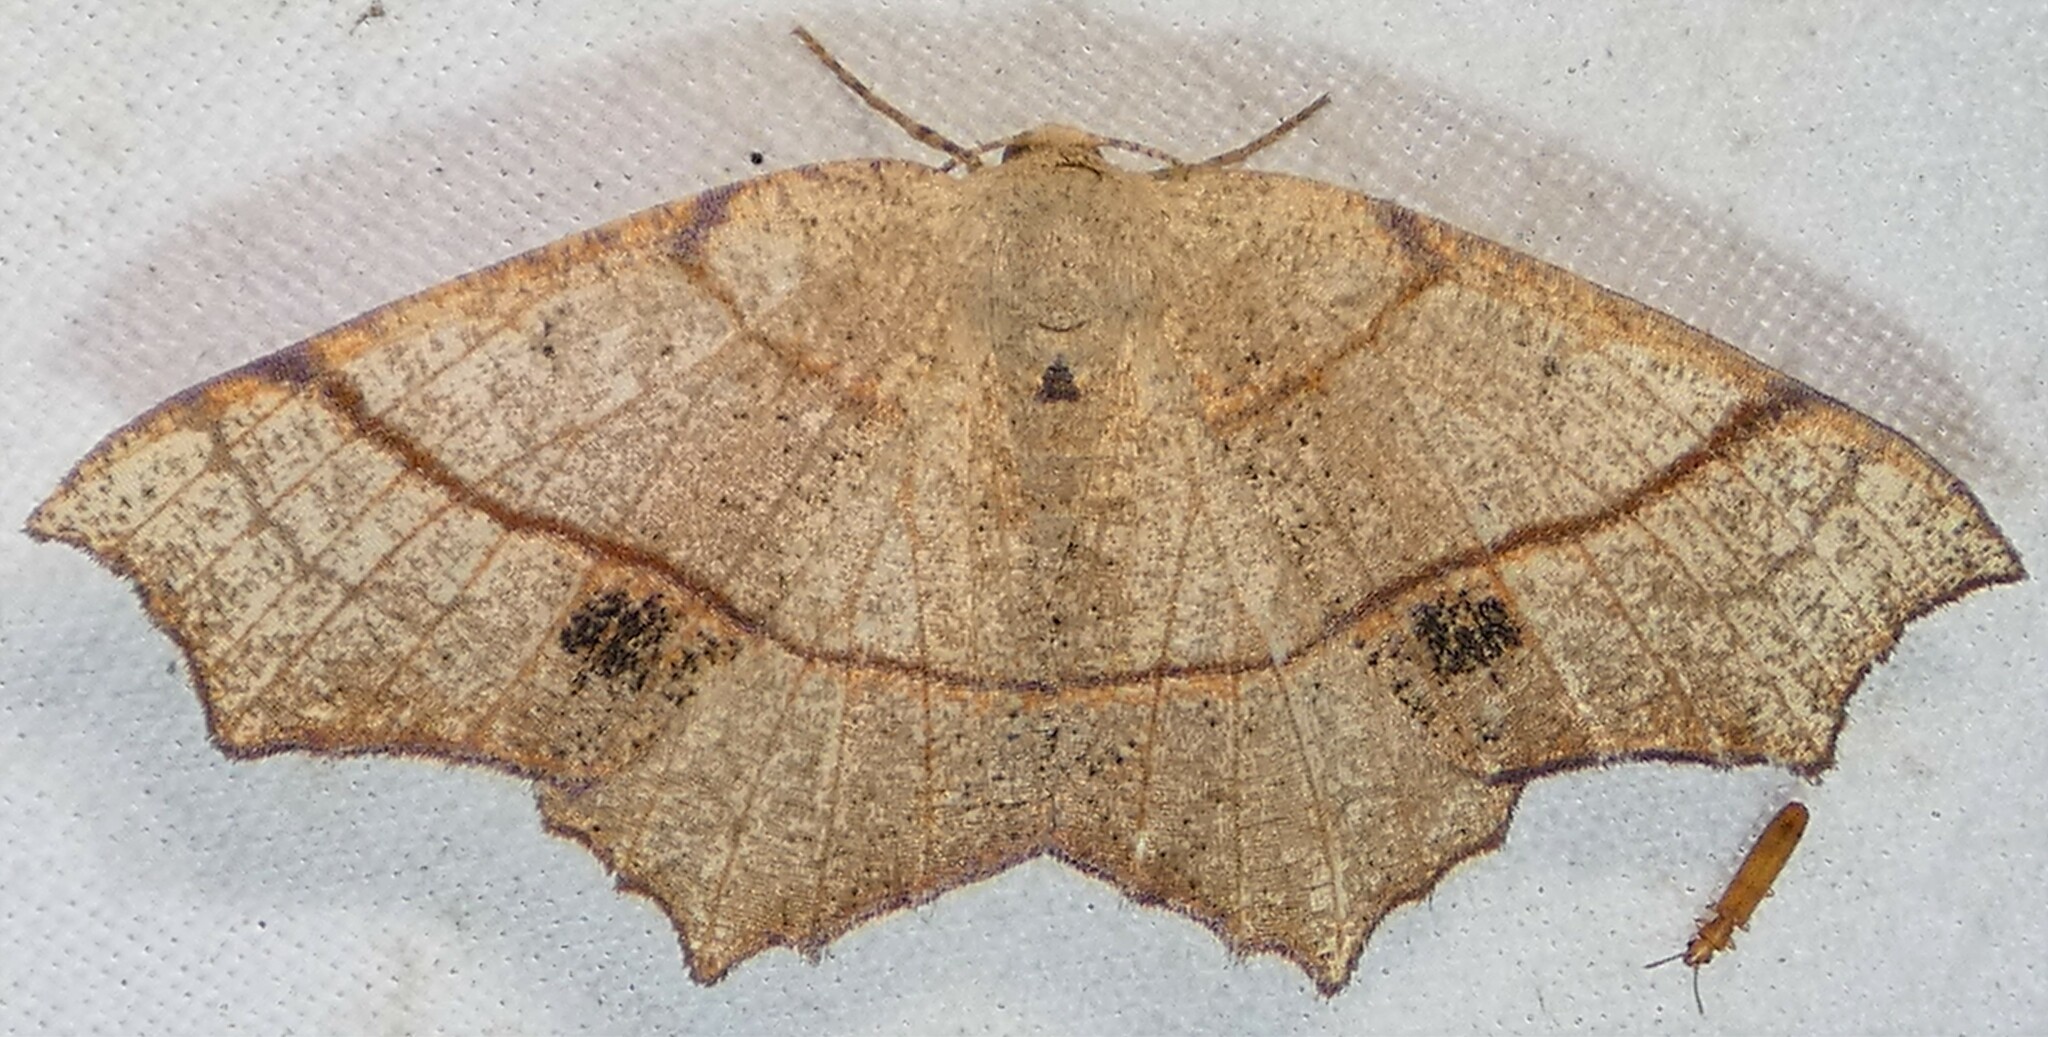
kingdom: Animalia
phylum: Arthropoda
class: Insecta
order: Lepidoptera
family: Geometridae
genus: Besma
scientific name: Besma quercivoraria
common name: Oak besma
